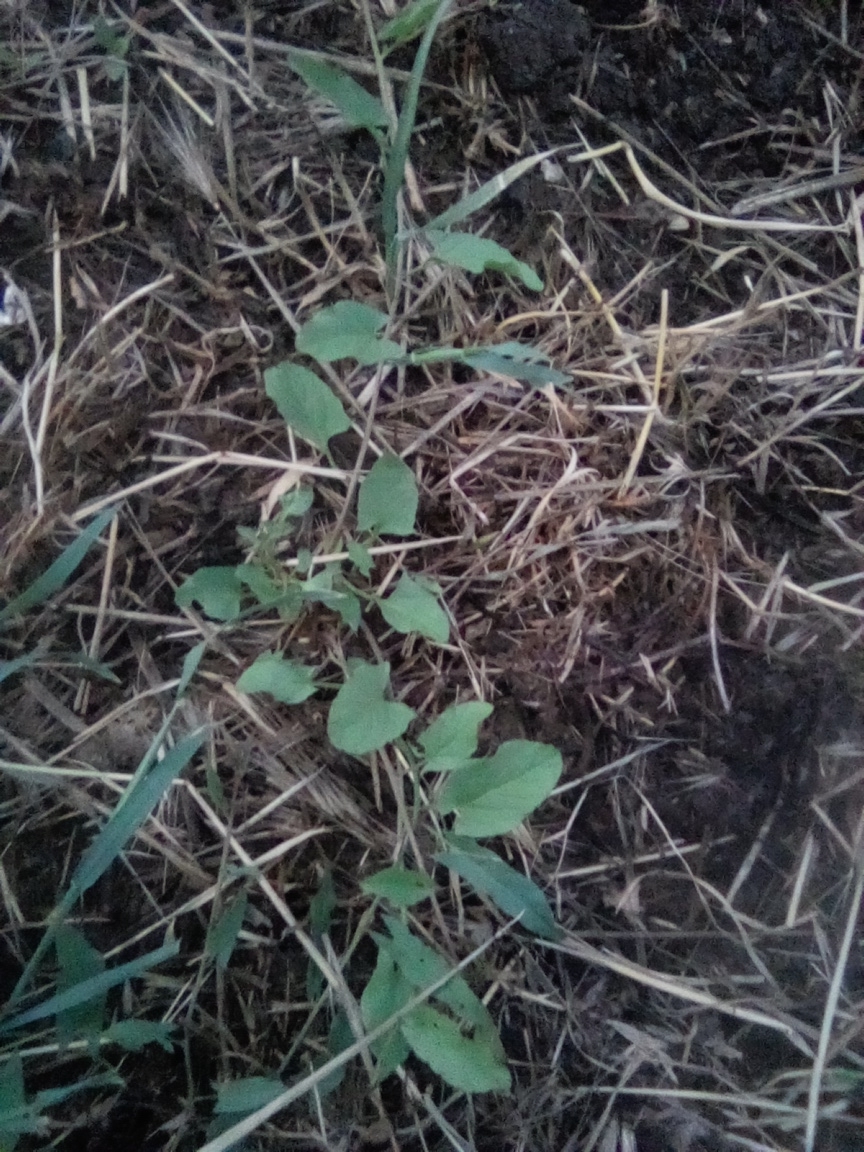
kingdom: Plantae
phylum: Tracheophyta
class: Magnoliopsida
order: Solanales
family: Convolvulaceae
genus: Convolvulus
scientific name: Convolvulus arvensis
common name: Field bindweed
